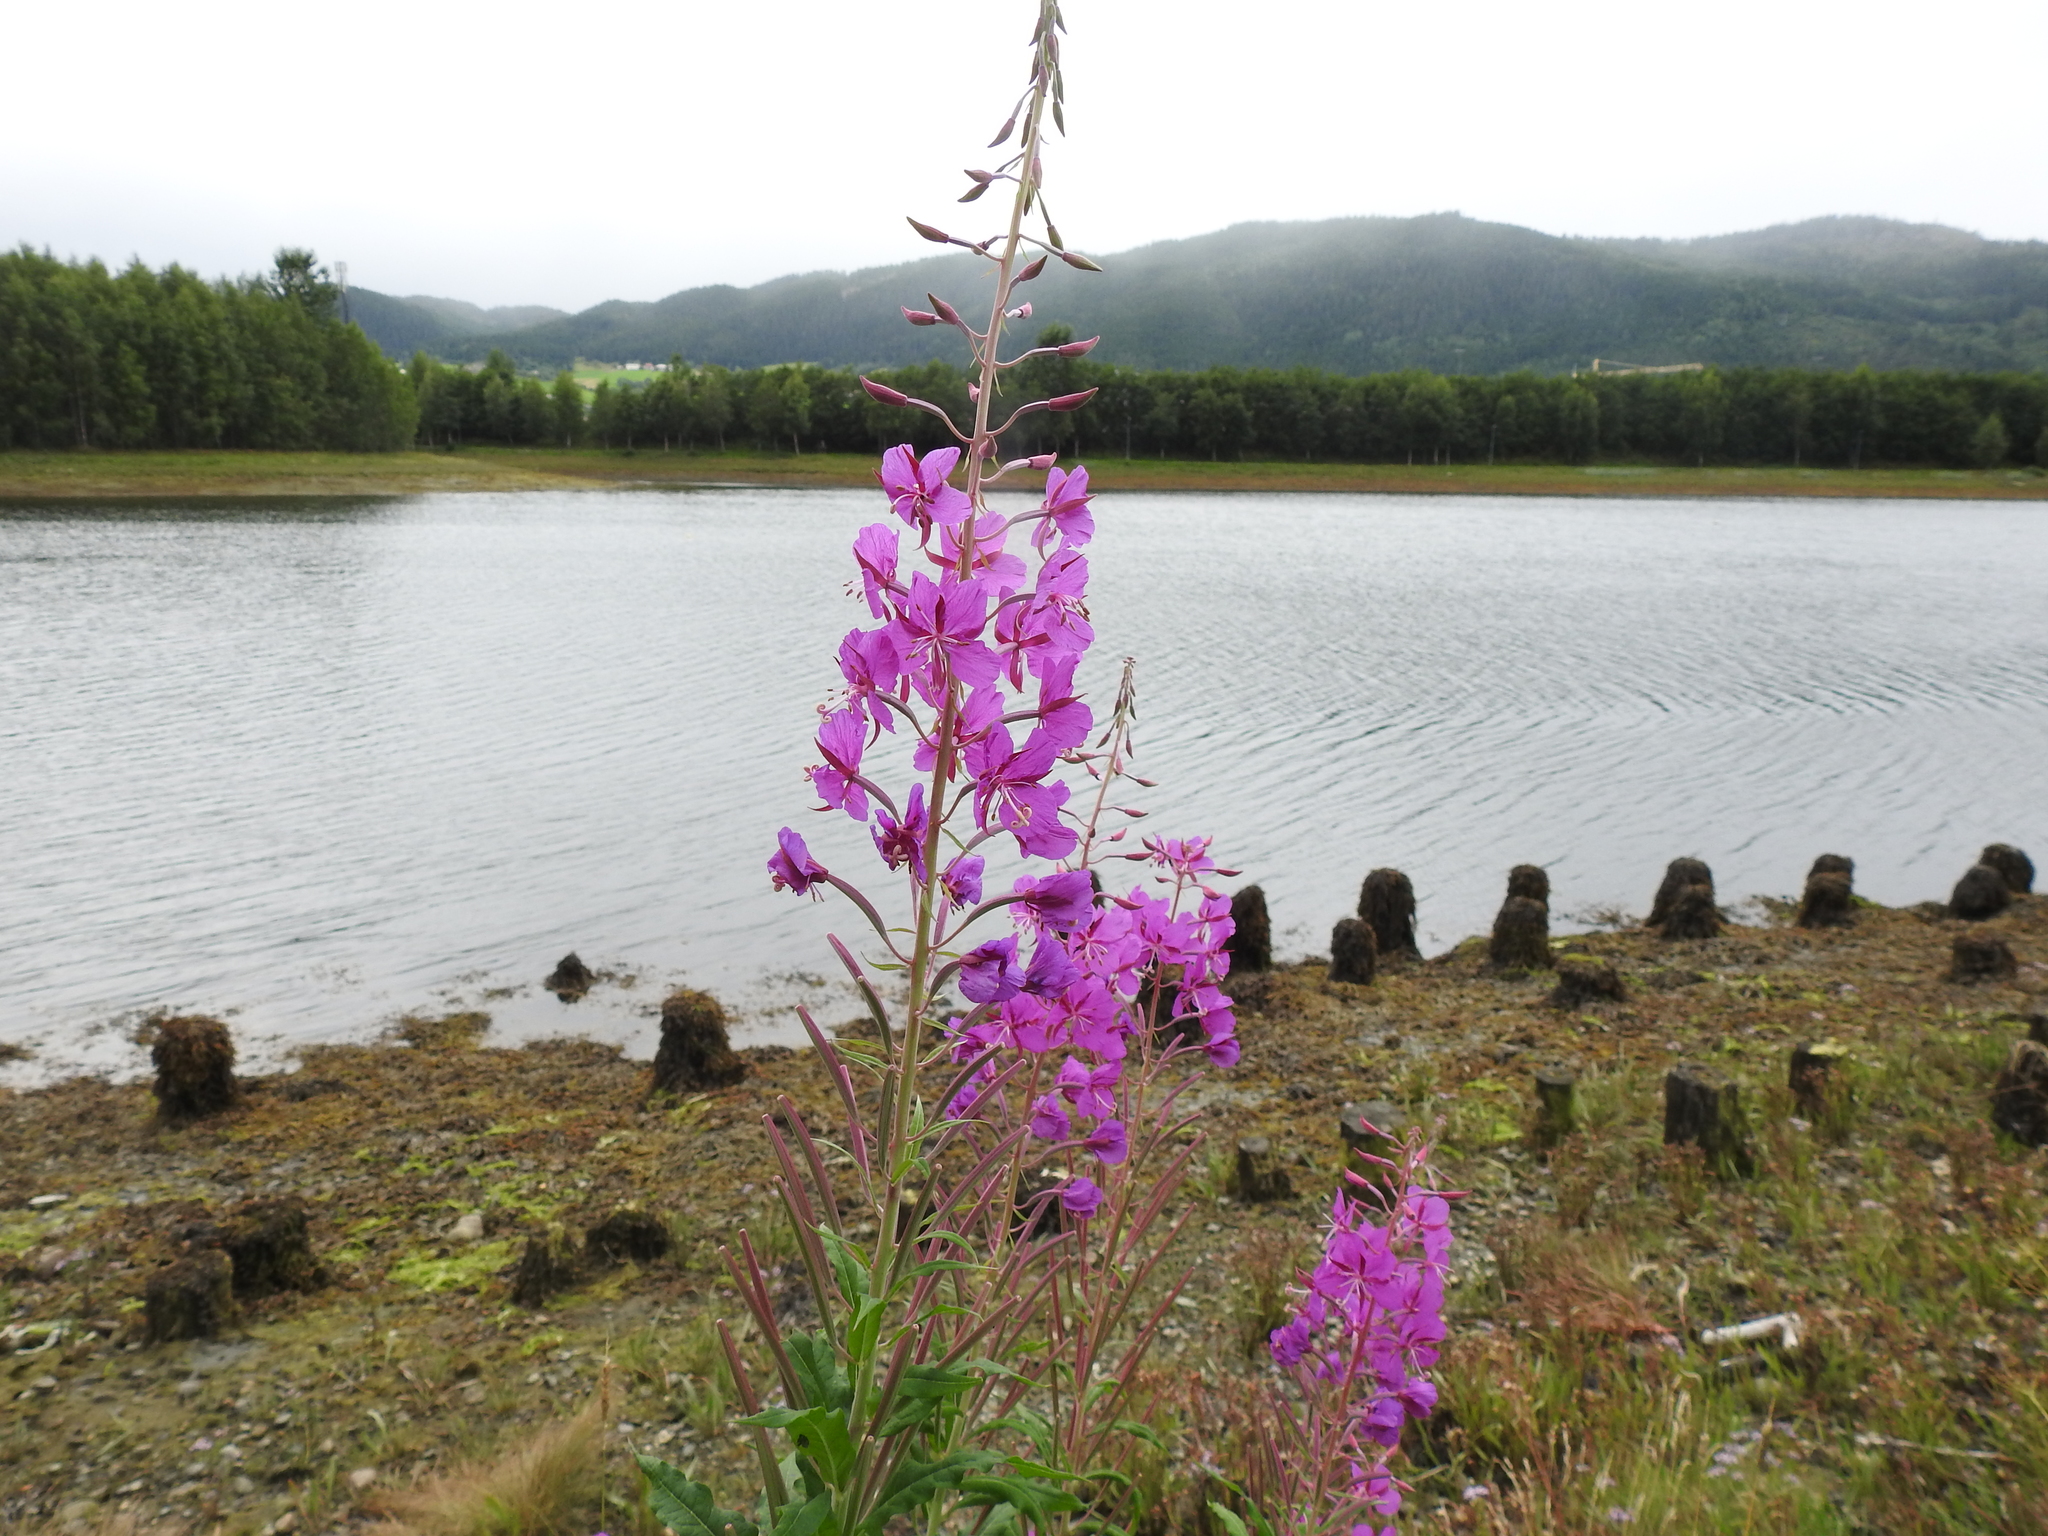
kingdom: Plantae
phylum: Tracheophyta
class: Magnoliopsida
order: Myrtales
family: Onagraceae
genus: Chamaenerion
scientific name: Chamaenerion angustifolium
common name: Fireweed
